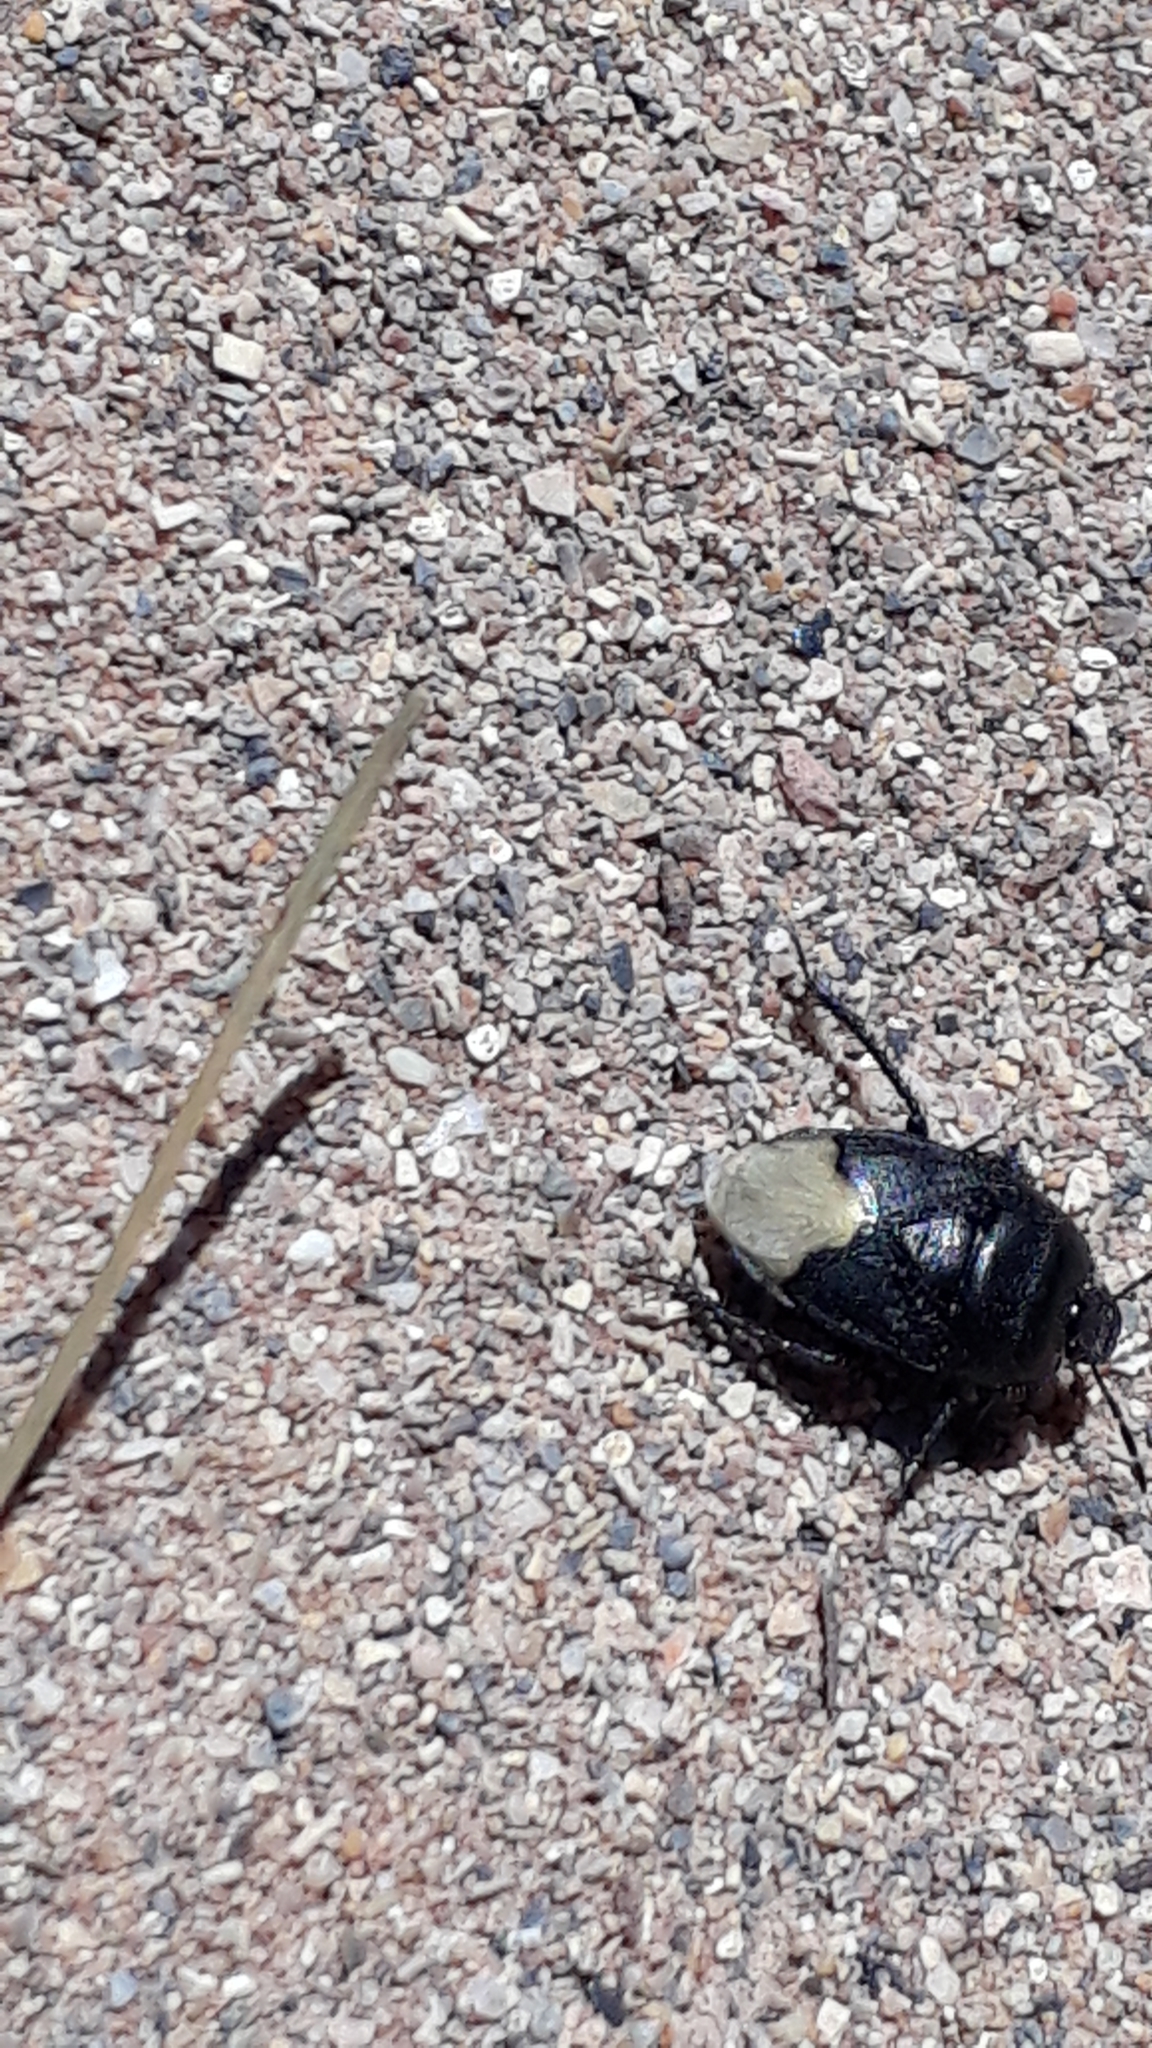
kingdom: Animalia
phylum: Arthropoda
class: Insecta
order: Hemiptera
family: Cydnidae
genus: Cydnus
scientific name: Cydnus aterrimus
